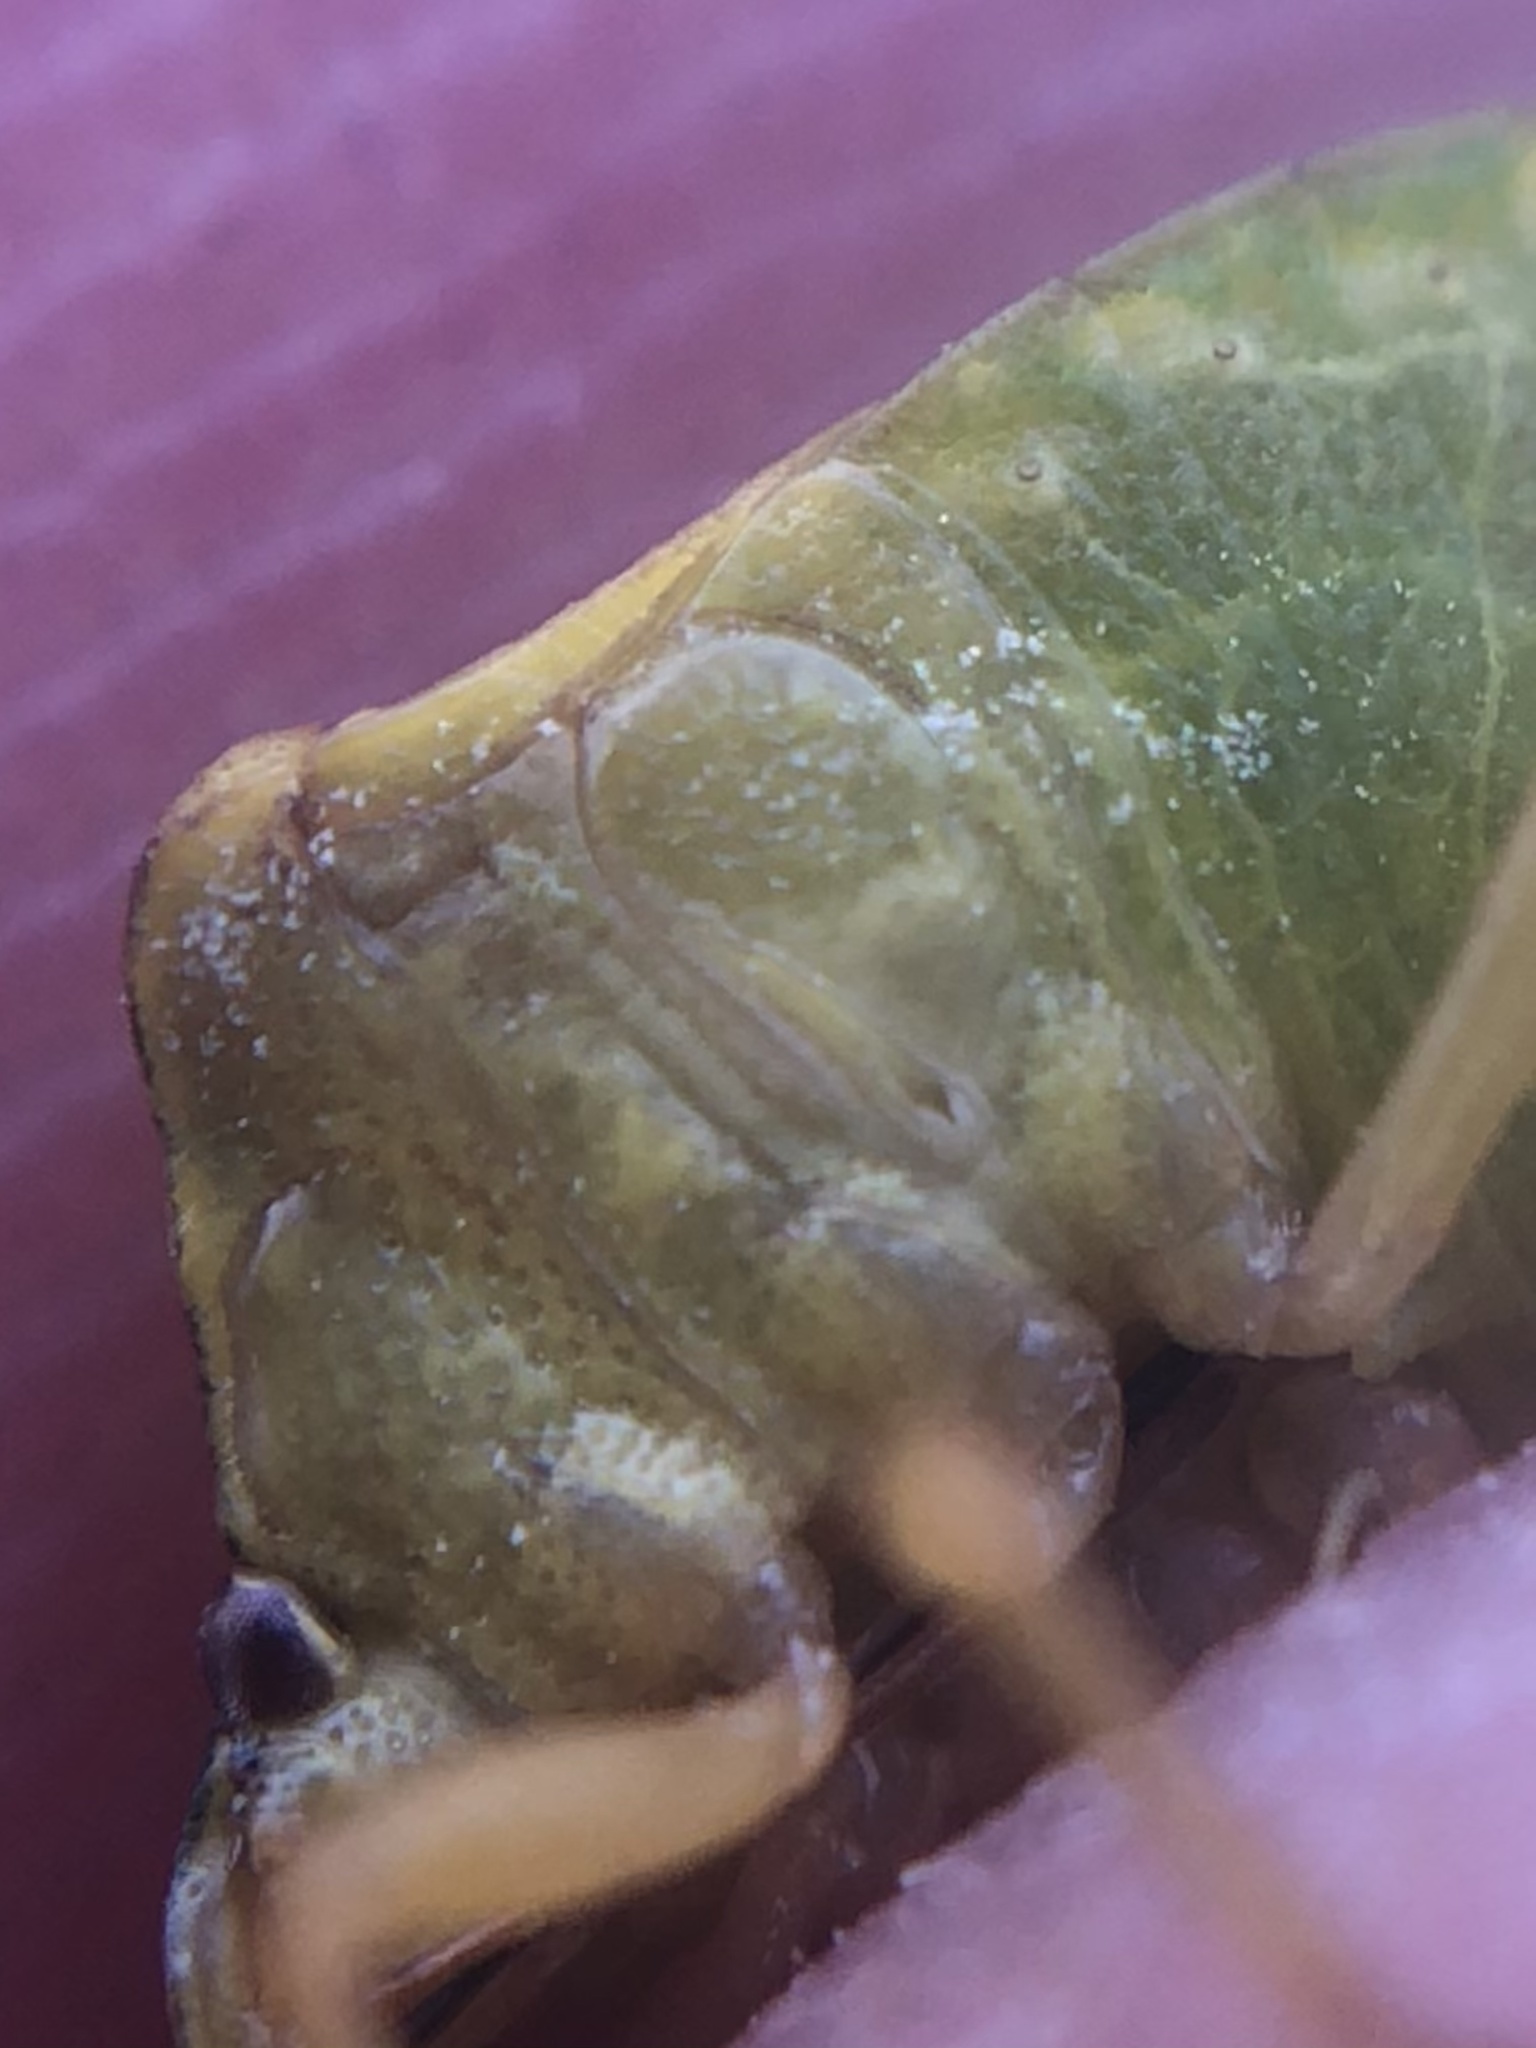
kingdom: Animalia
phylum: Arthropoda
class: Insecta
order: Hemiptera
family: Pentatomidae
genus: Dendrocoris
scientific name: Dendrocoris contaminatus
